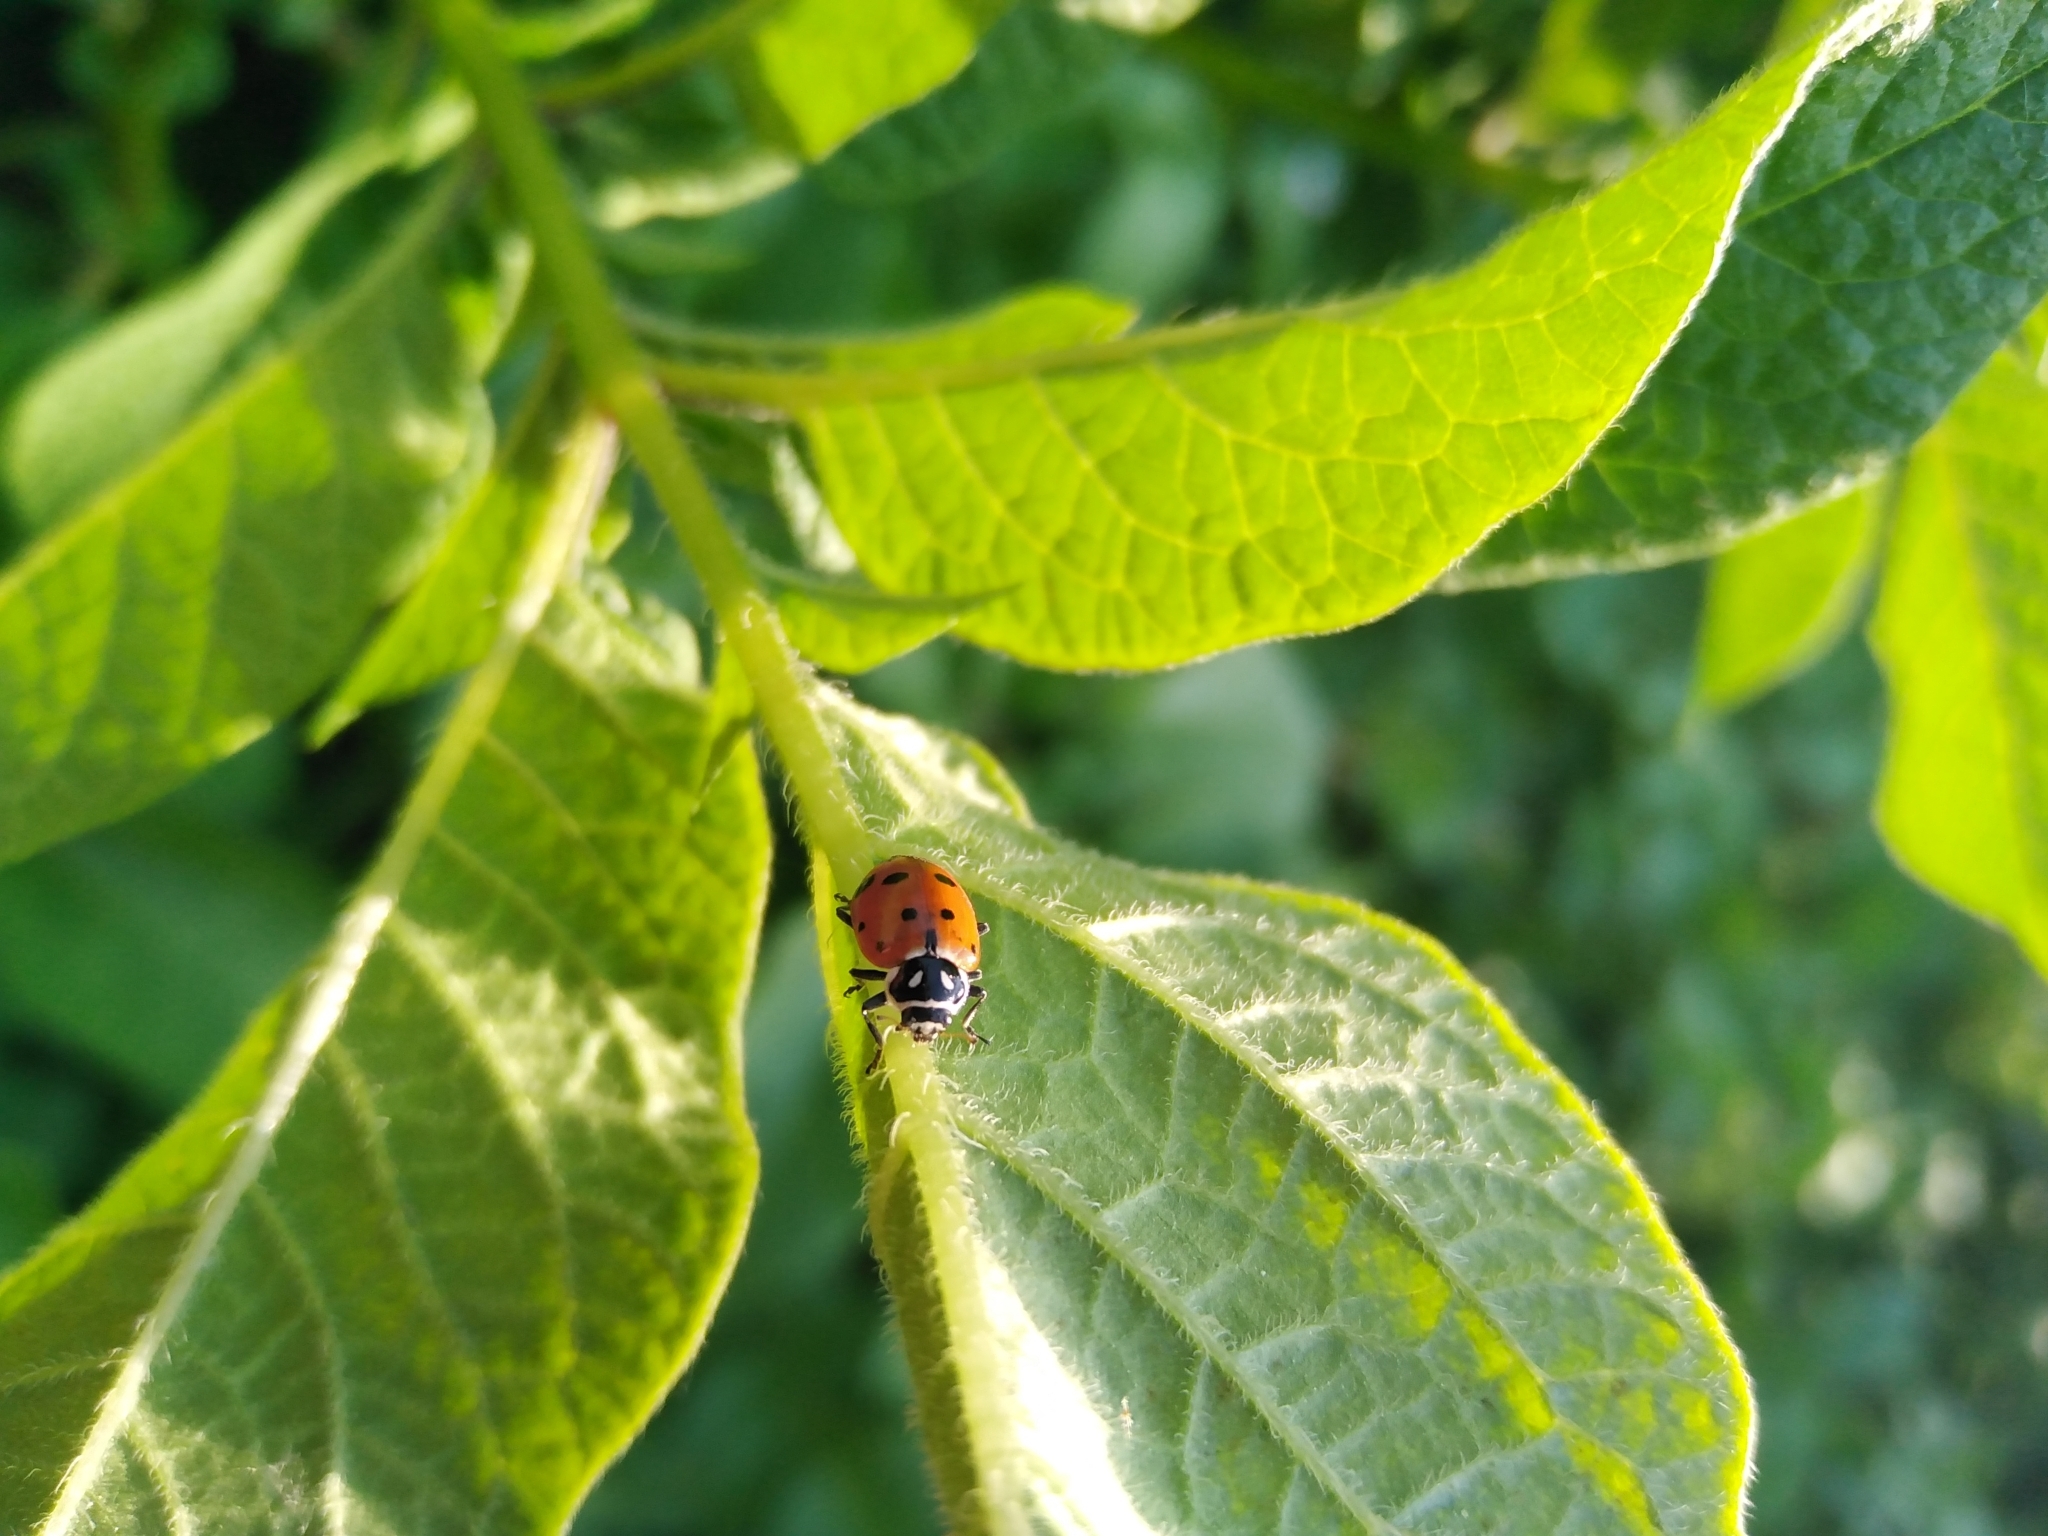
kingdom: Animalia
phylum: Arthropoda
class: Insecta
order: Coleoptera
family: Coccinellidae
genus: Hippodamia
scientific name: Hippodamia convergens
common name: Convergent lady beetle
